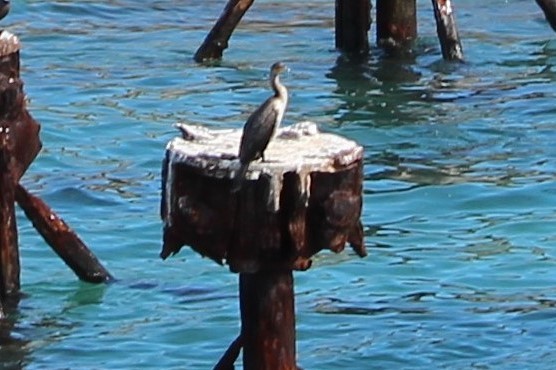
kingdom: Animalia
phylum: Chordata
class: Aves
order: Suliformes
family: Phalacrocoracidae
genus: Phalacrocorax
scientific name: Phalacrocorax auritus
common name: Double-crested cormorant
